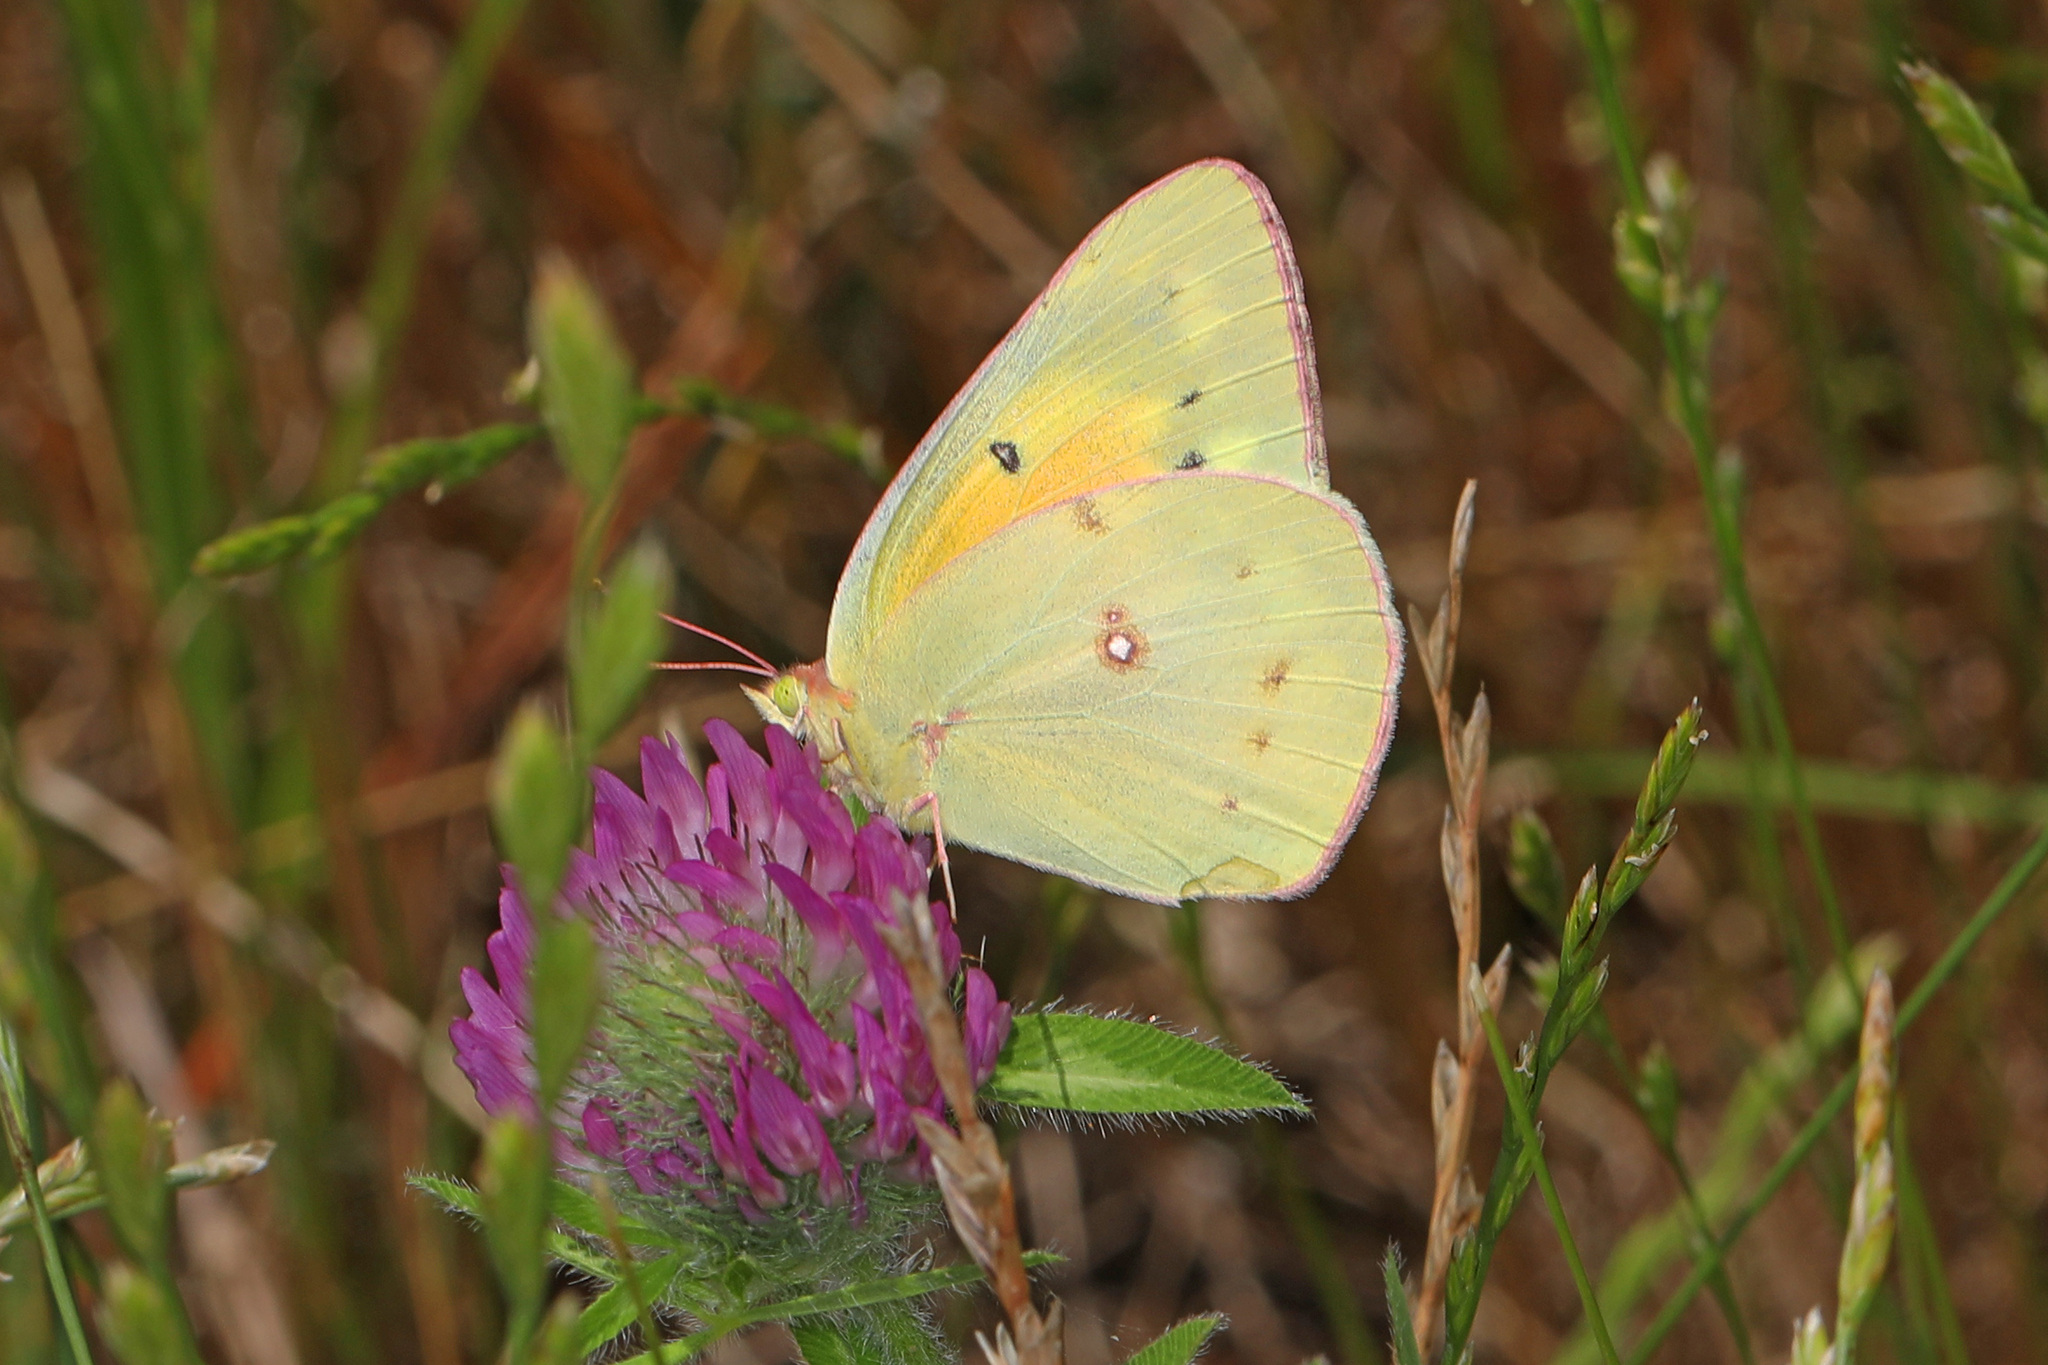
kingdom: Animalia
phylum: Arthropoda
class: Insecta
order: Lepidoptera
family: Pieridae
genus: Colias
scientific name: Colias eurytheme
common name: Alfalfa butterfly
